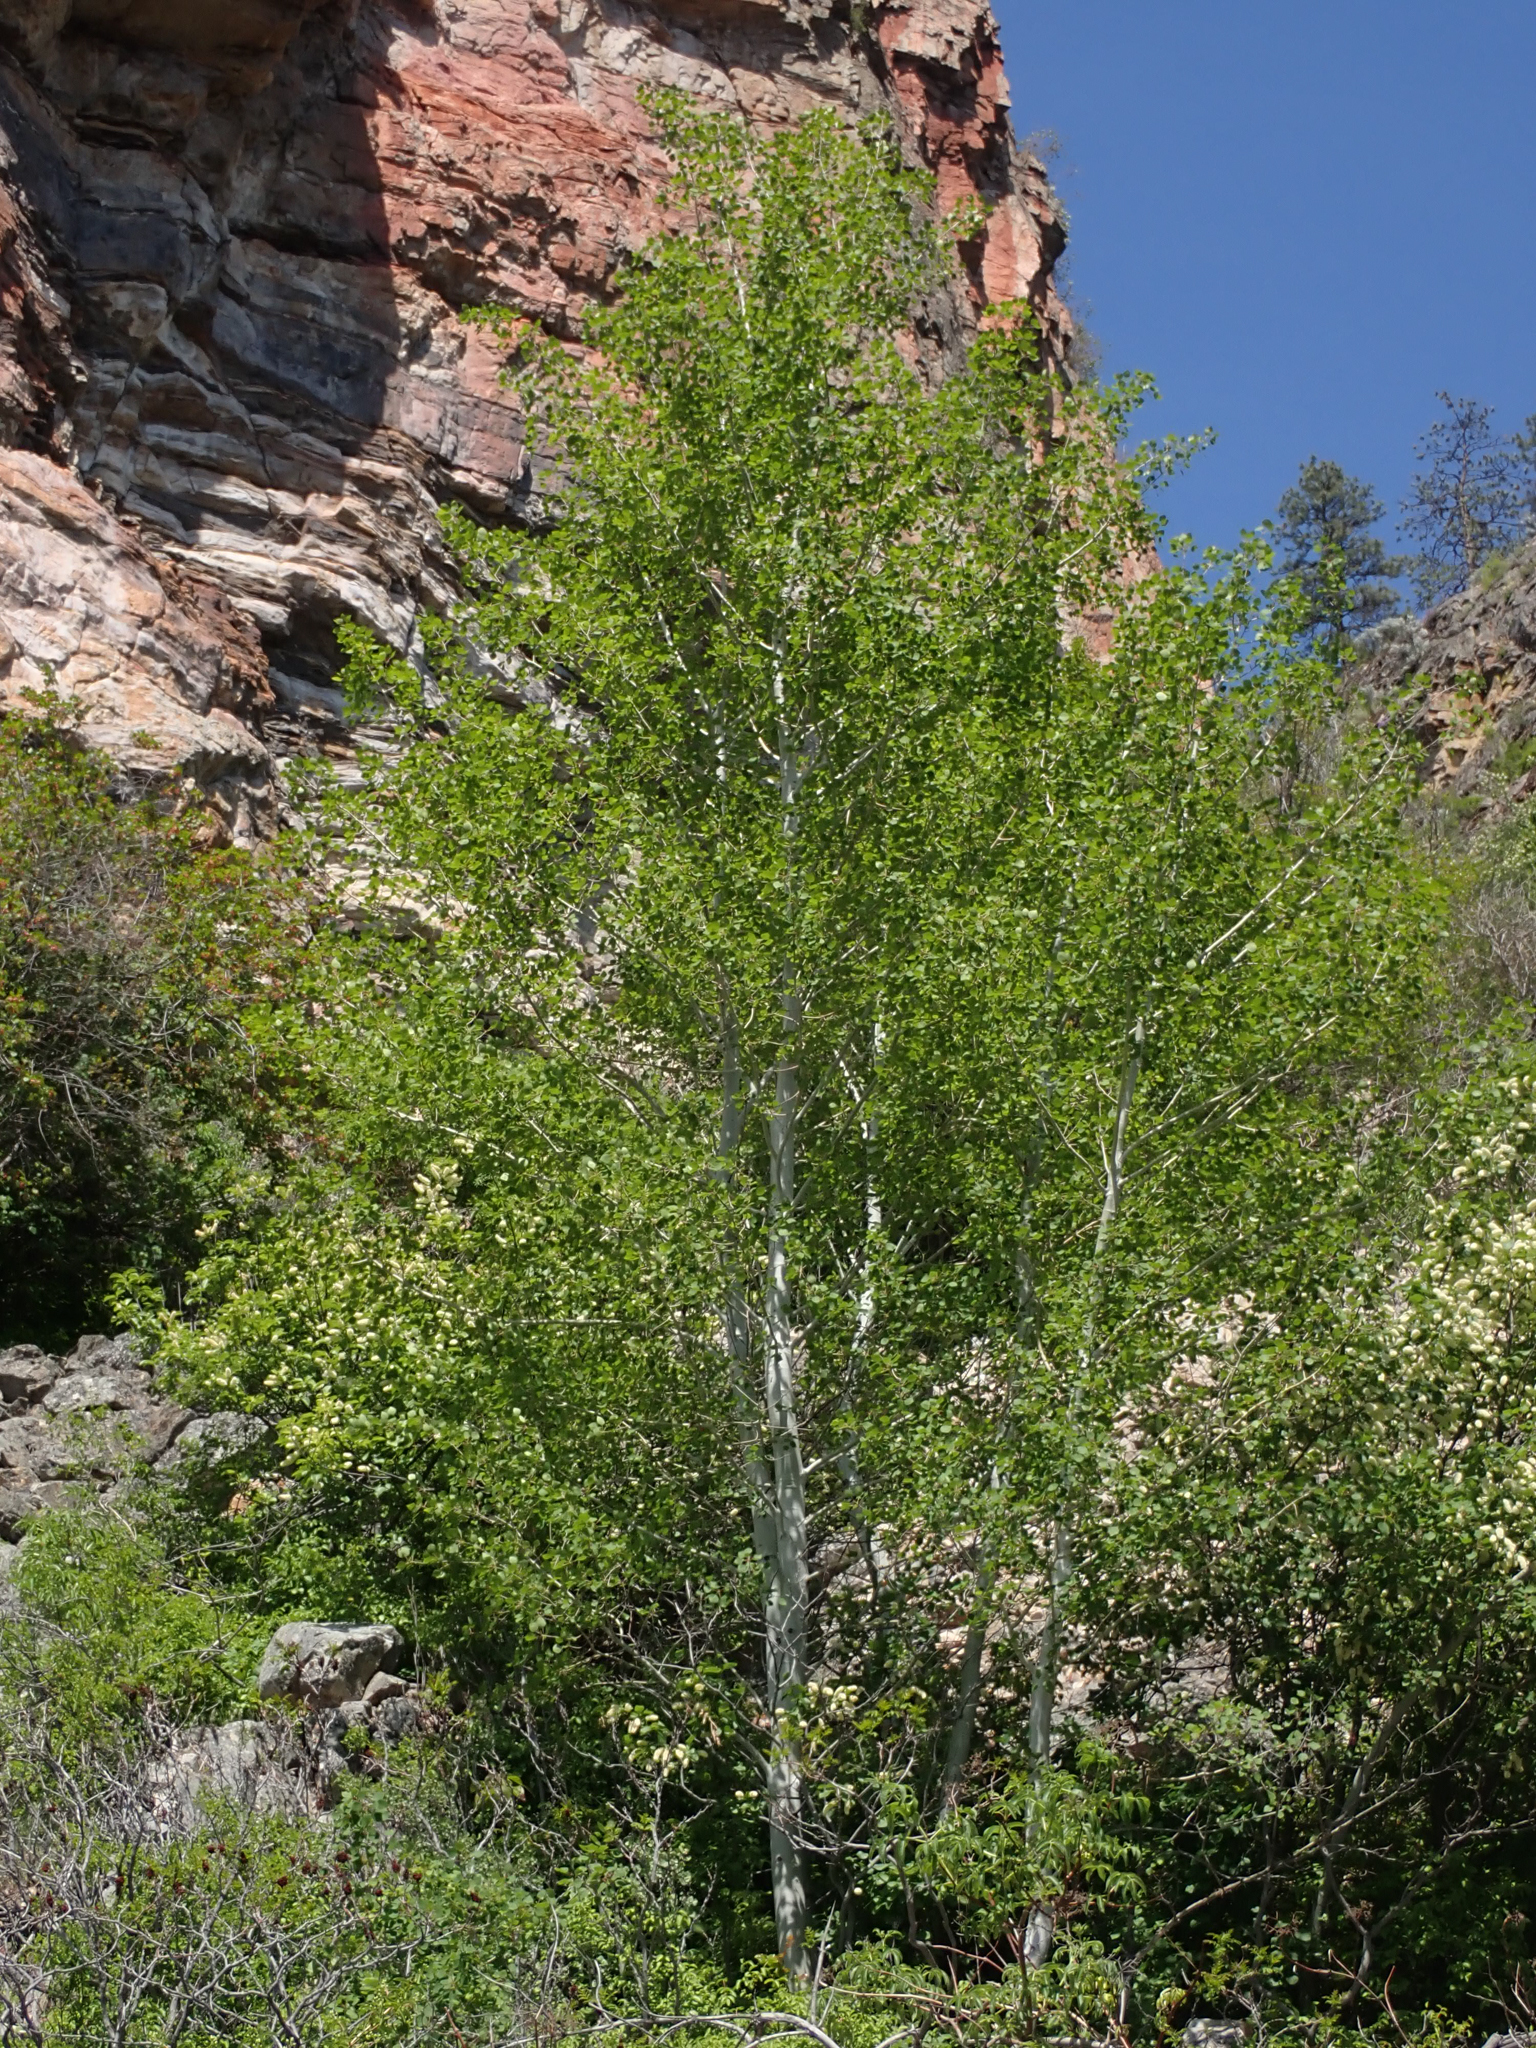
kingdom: Plantae
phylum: Tracheophyta
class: Magnoliopsida
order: Malpighiales
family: Salicaceae
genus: Populus
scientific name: Populus tremuloides
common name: Quaking aspen
